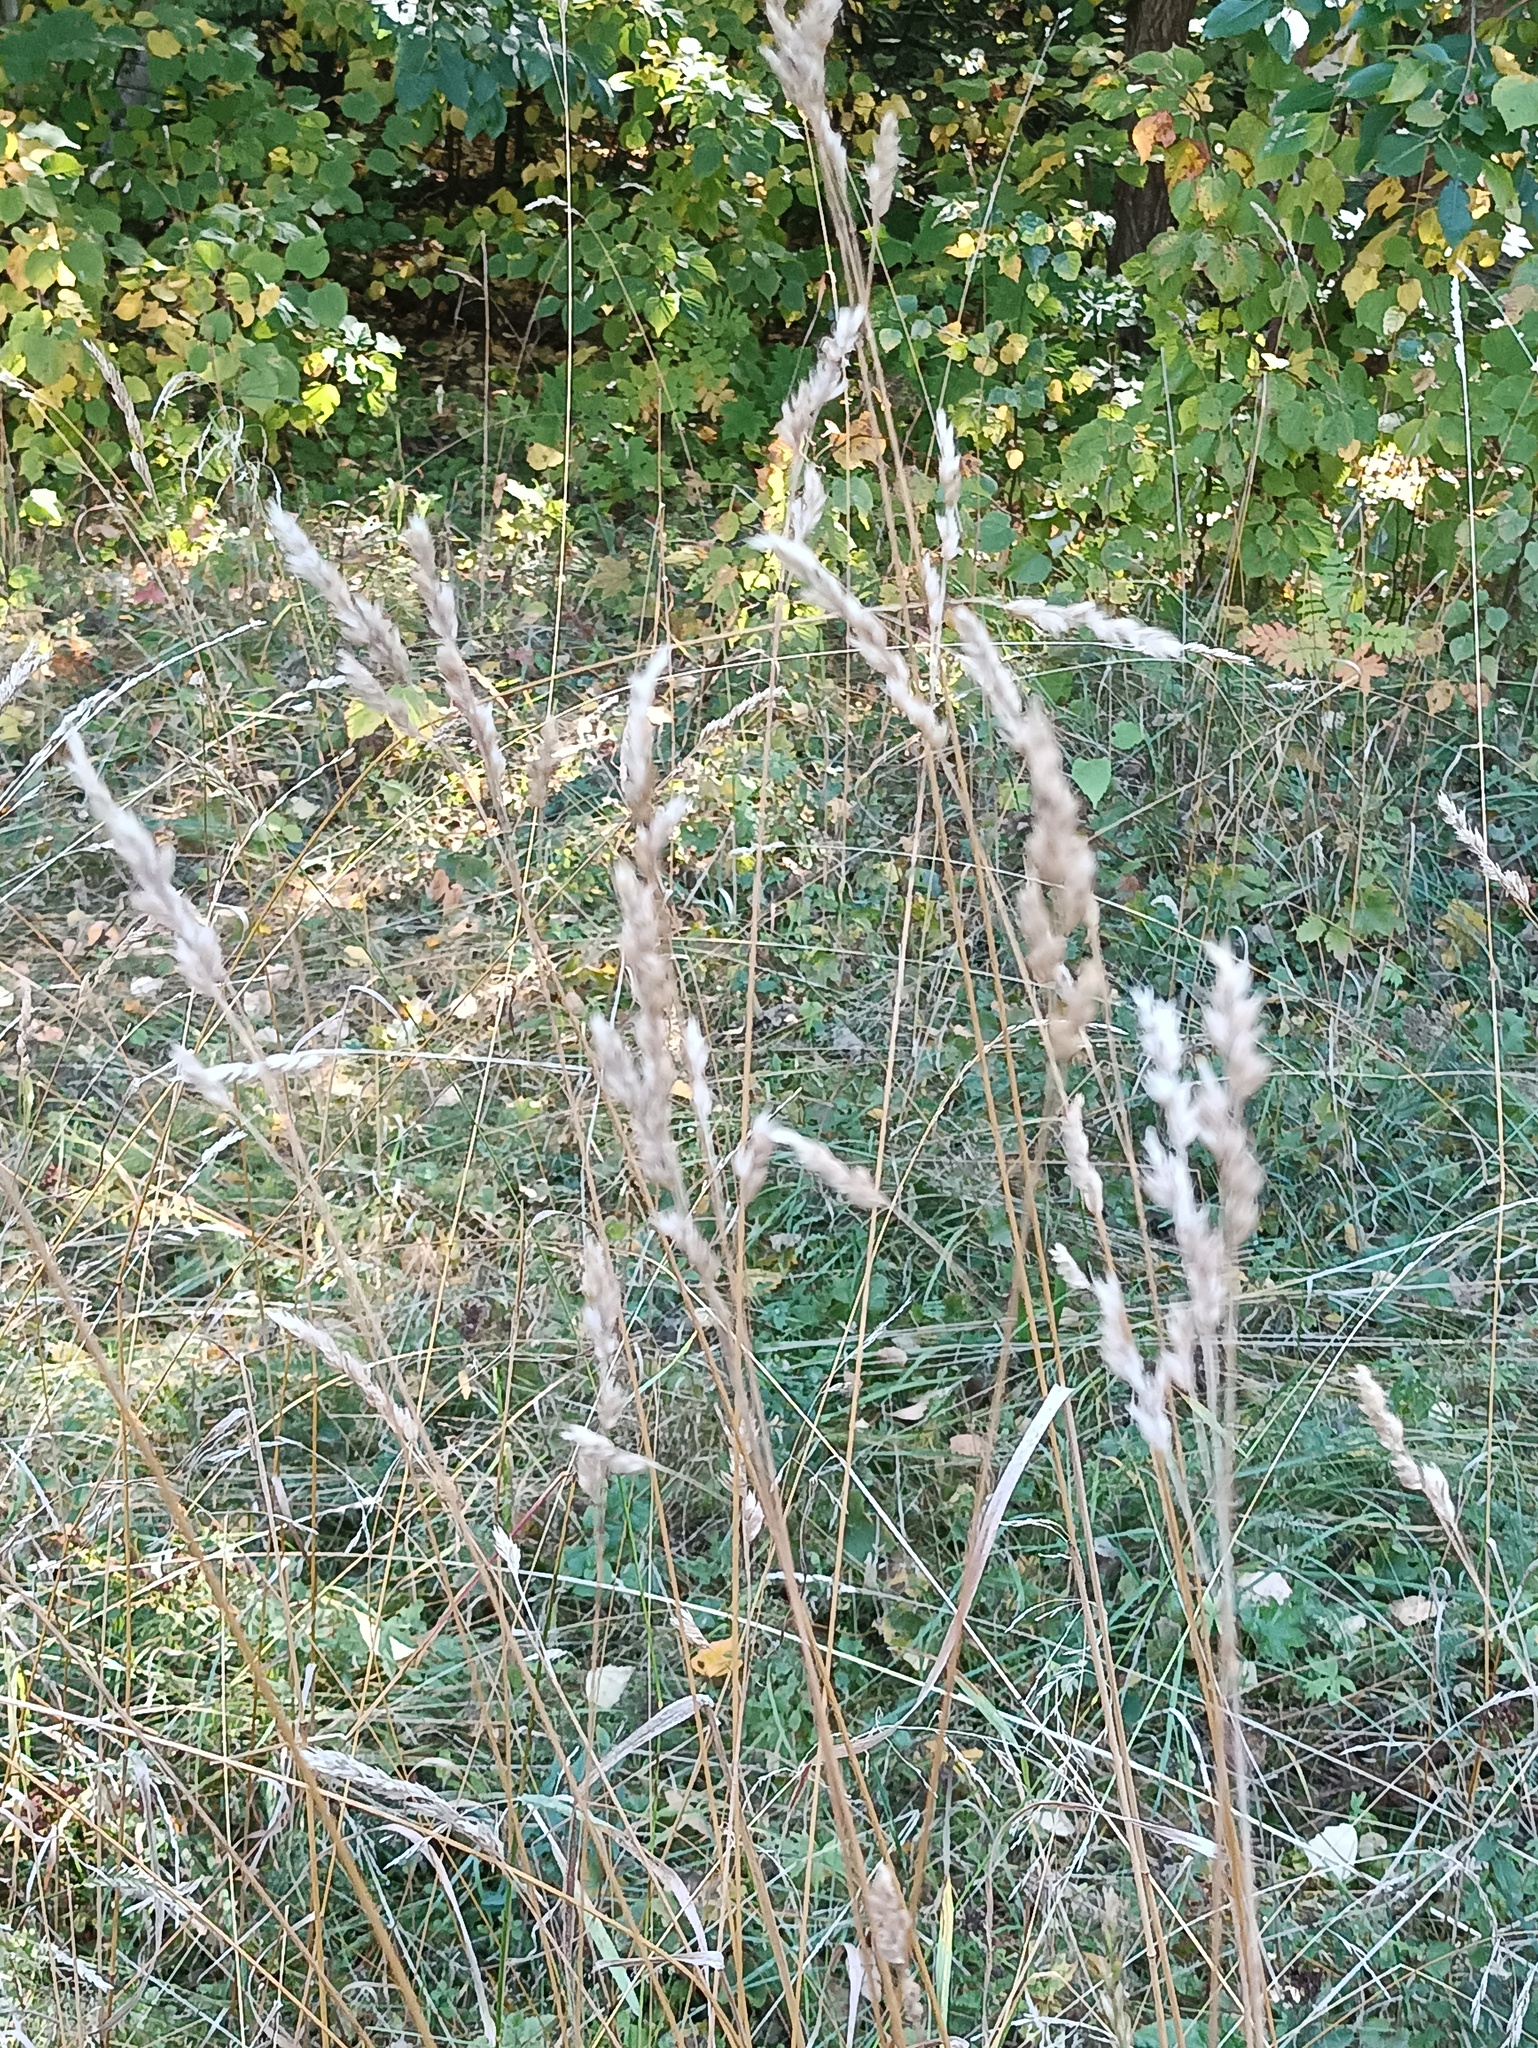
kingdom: Plantae
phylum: Tracheophyta
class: Liliopsida
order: Poales
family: Poaceae
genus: Dactylis
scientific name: Dactylis glomerata
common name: Orchardgrass
